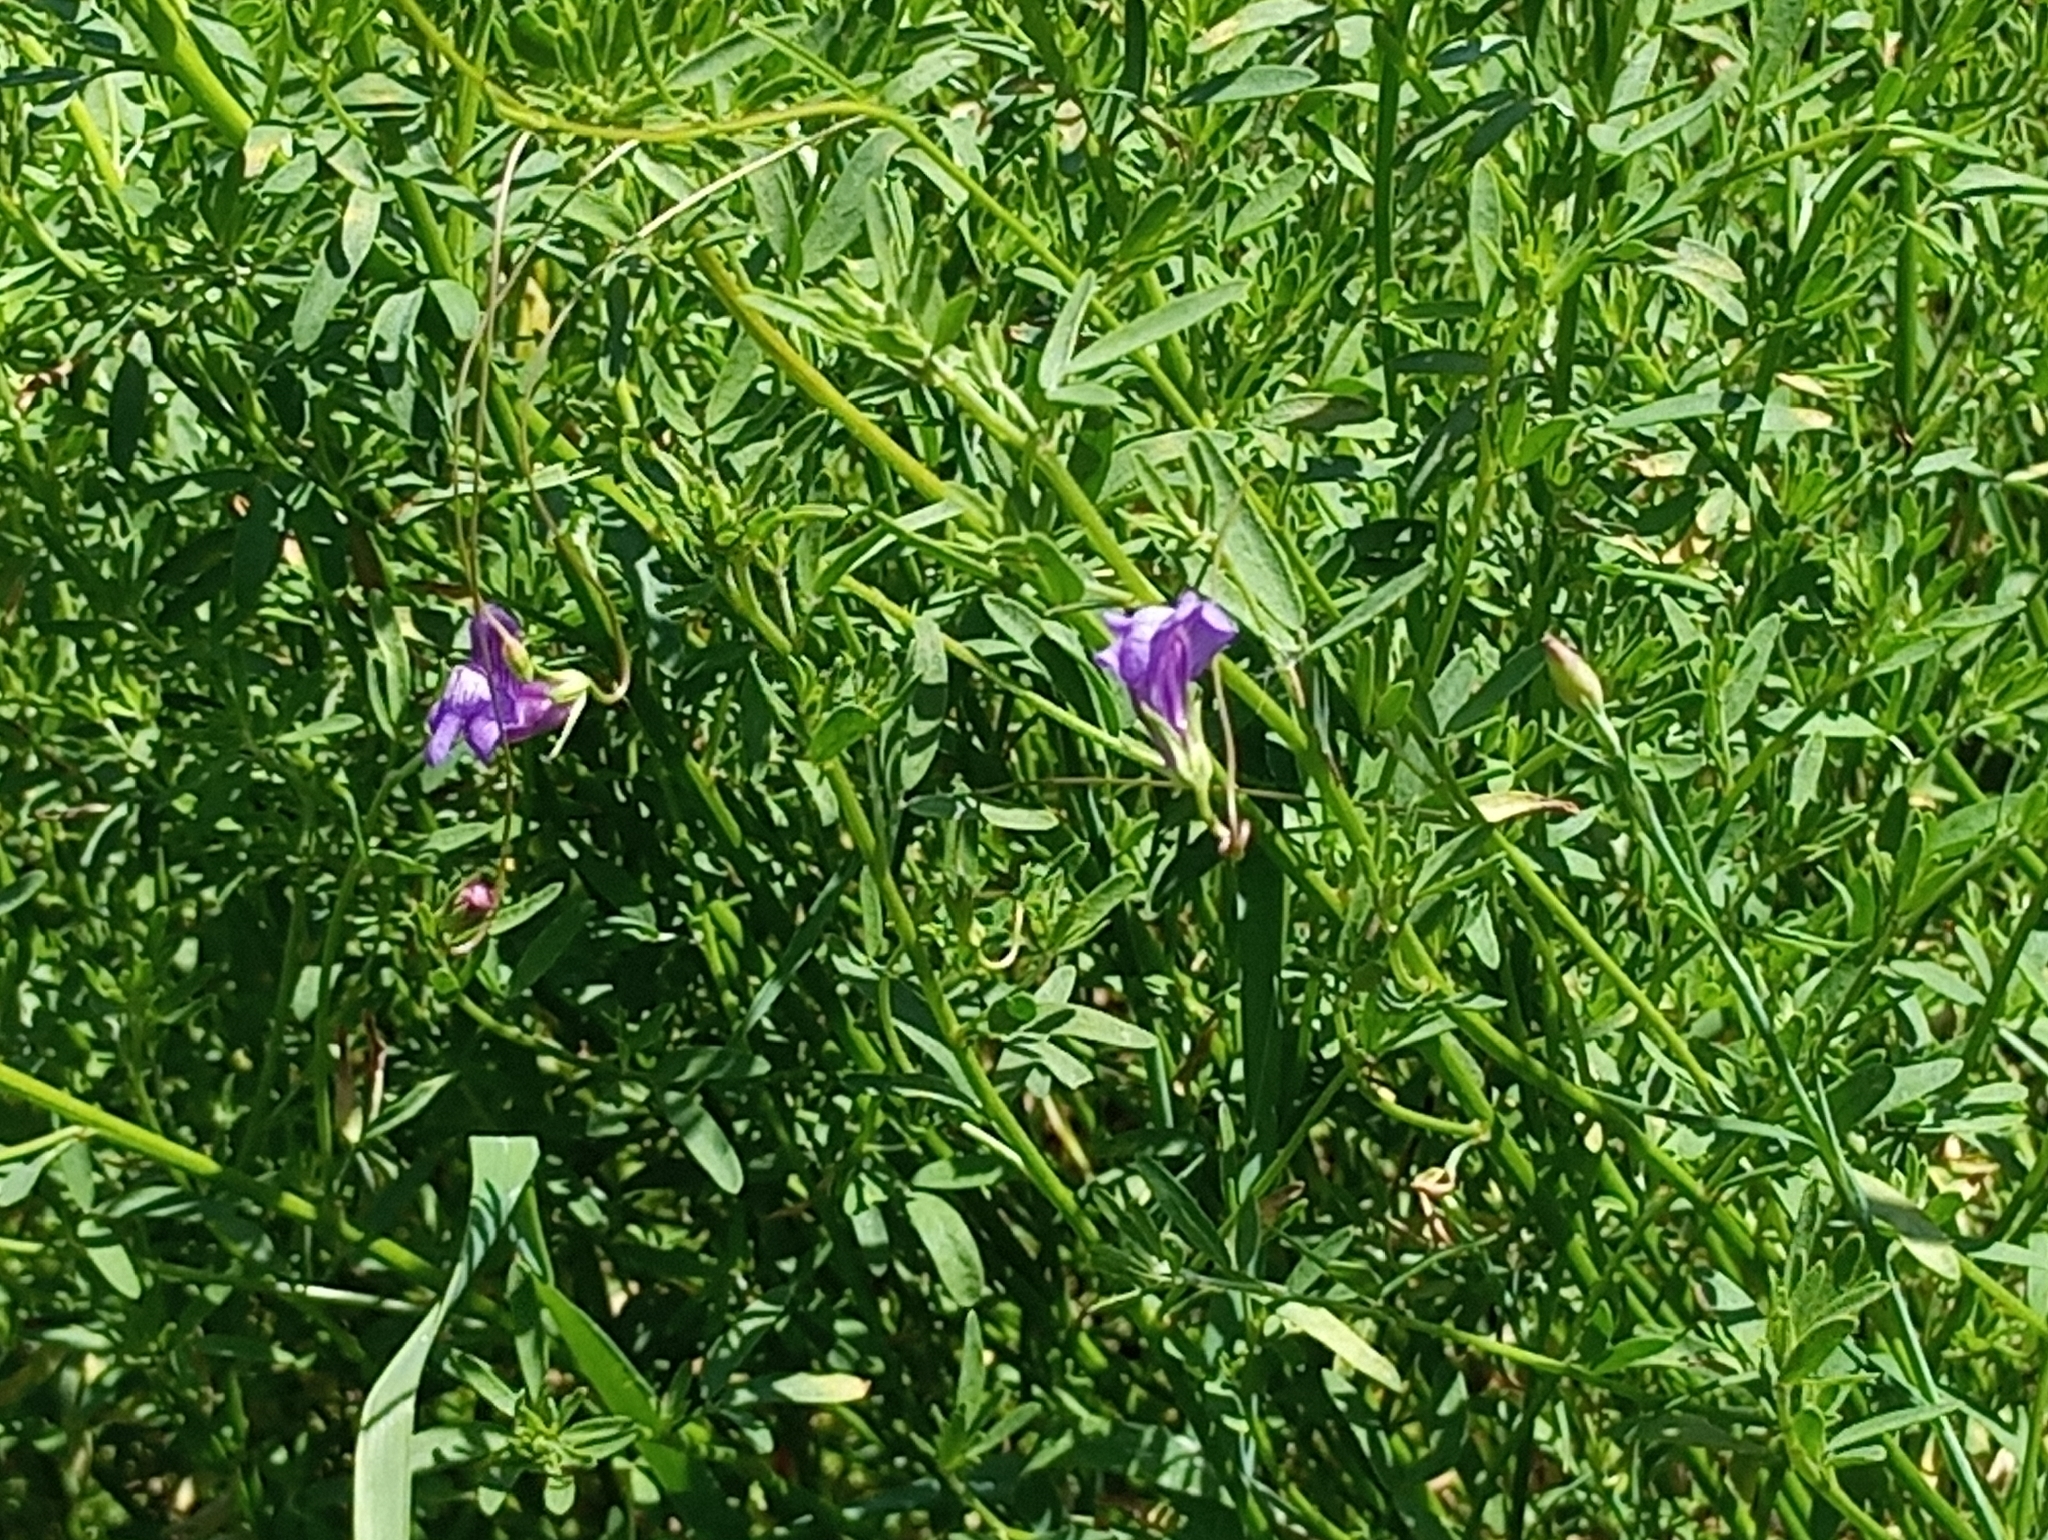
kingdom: Plantae
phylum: Tracheophyta
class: Magnoliopsida
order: Lamiales
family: Plantaginaceae
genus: Neogaerrhinum
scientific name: Neogaerrhinum strictum
